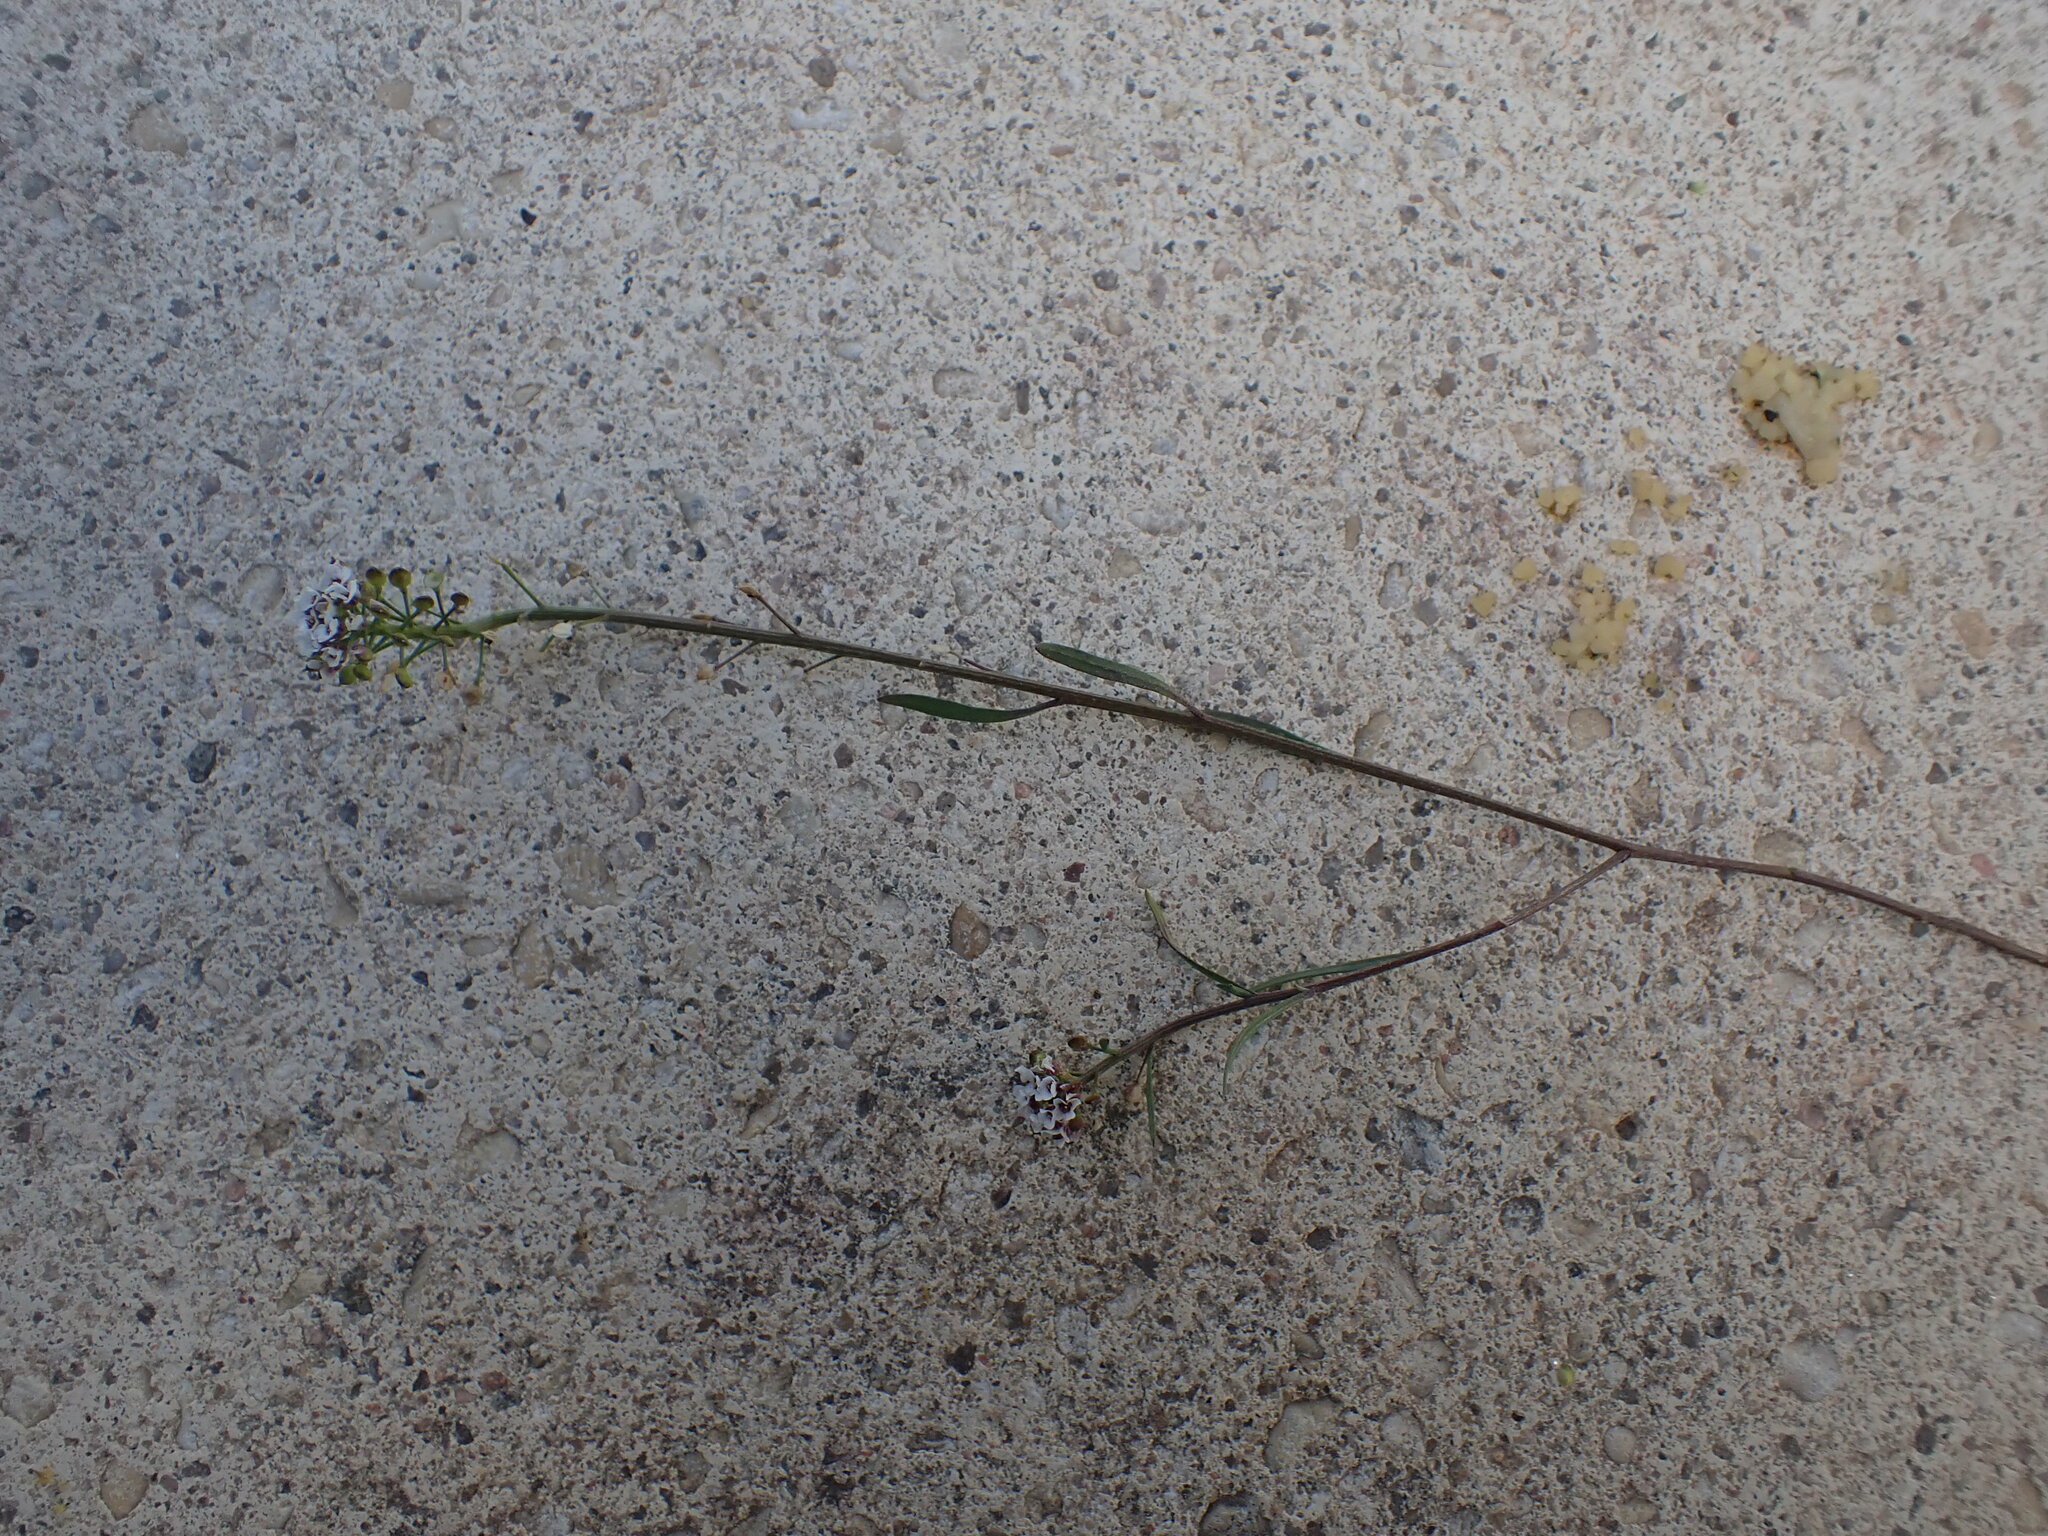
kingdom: Plantae
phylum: Tracheophyta
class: Magnoliopsida
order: Brassicales
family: Brassicaceae
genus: Lobularia
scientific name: Lobularia maritima
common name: Sweet alison
